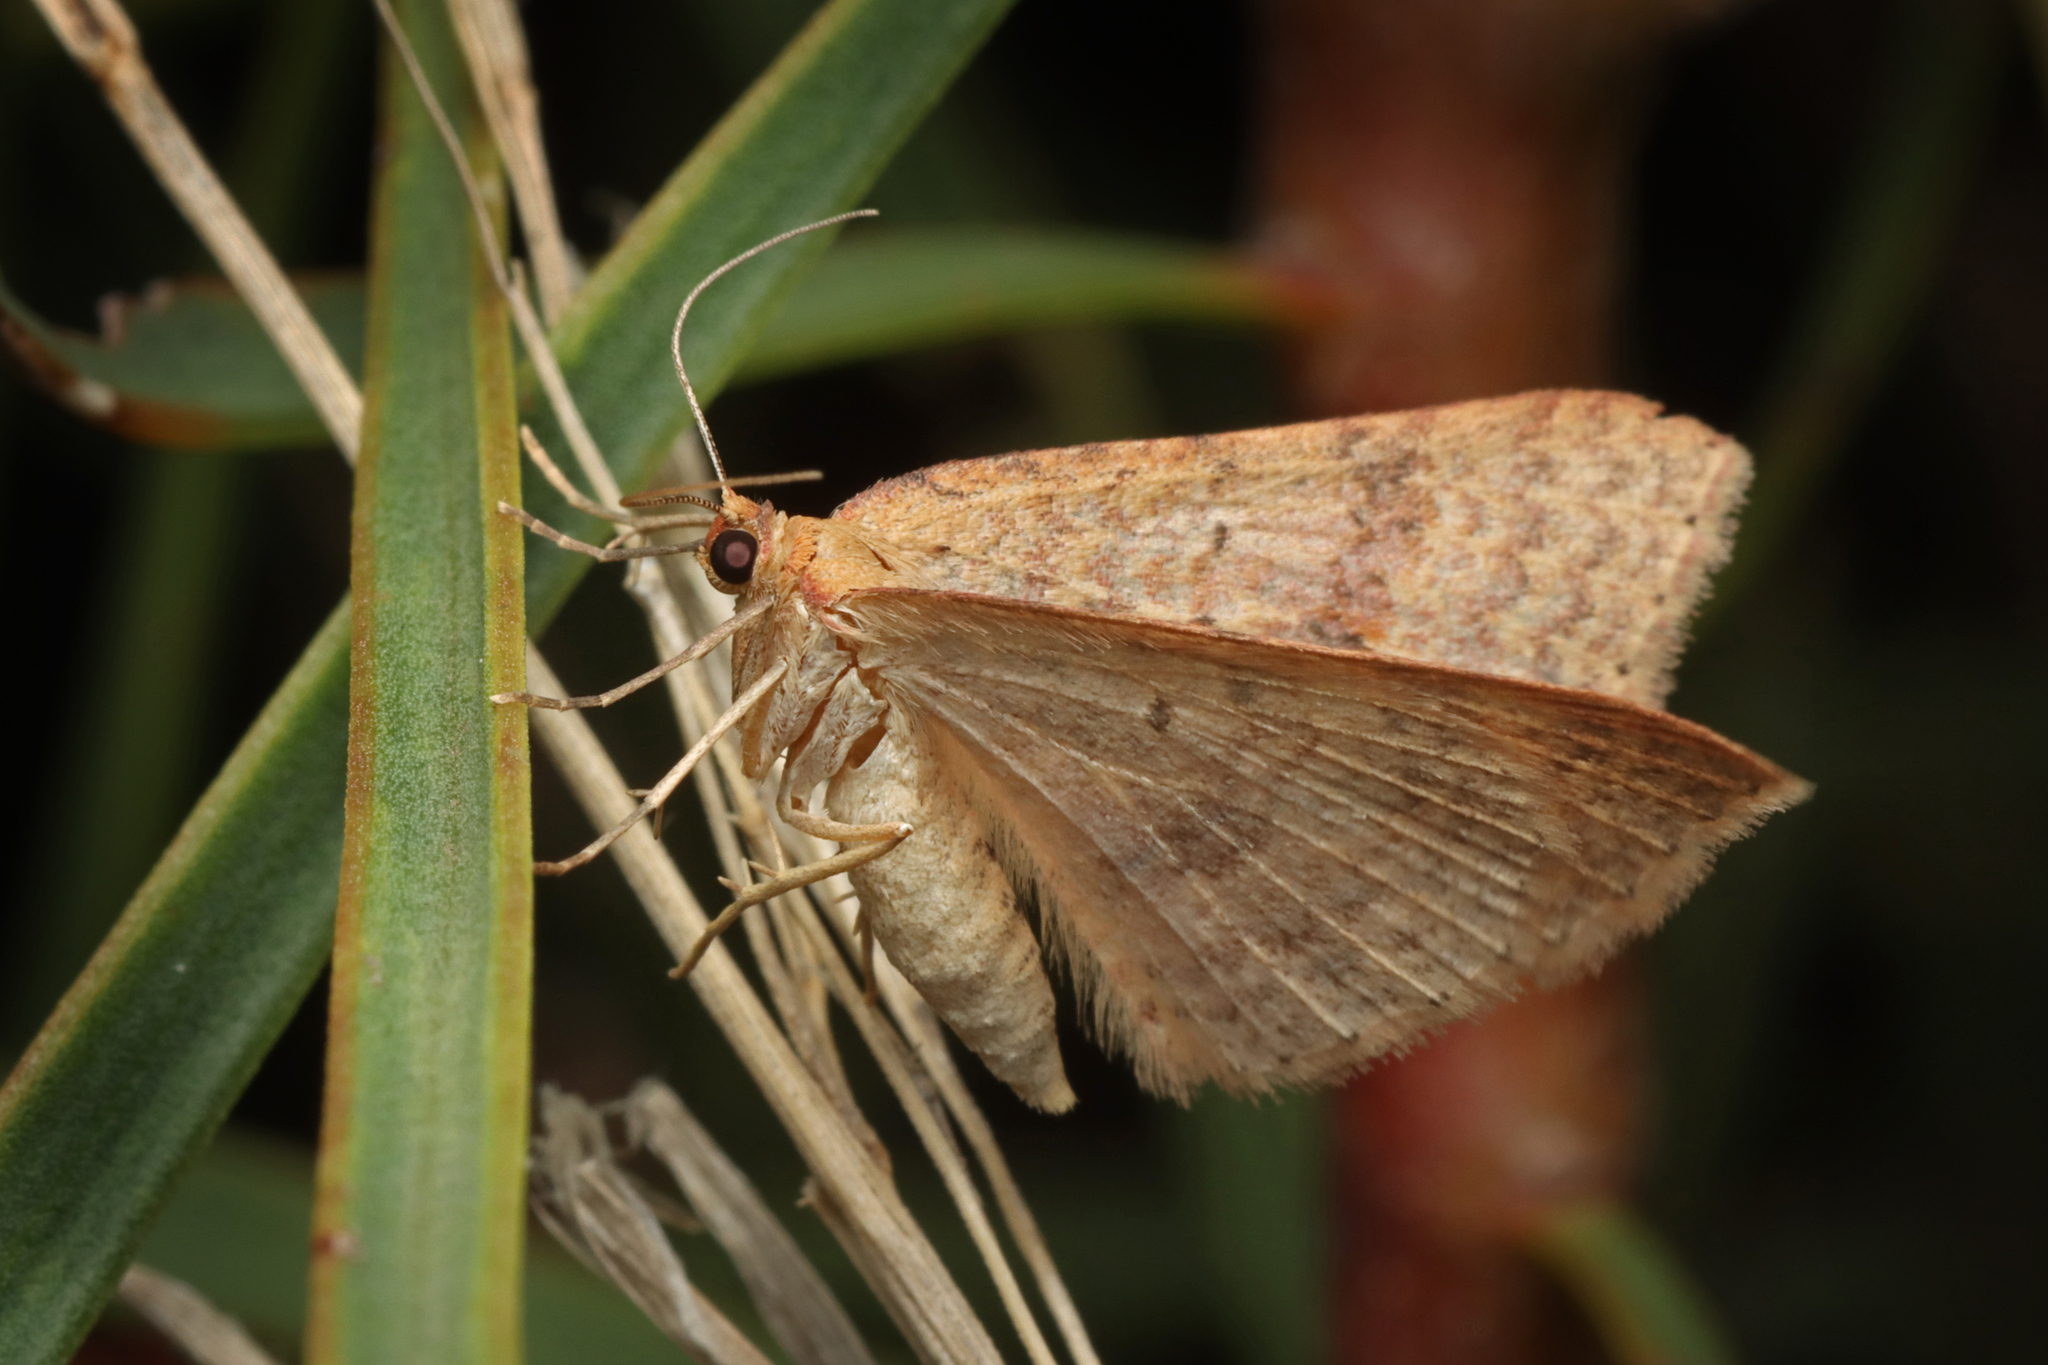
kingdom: Animalia
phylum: Arthropoda
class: Insecta
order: Lepidoptera
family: Geometridae
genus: Scopula
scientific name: Scopula rubraria
